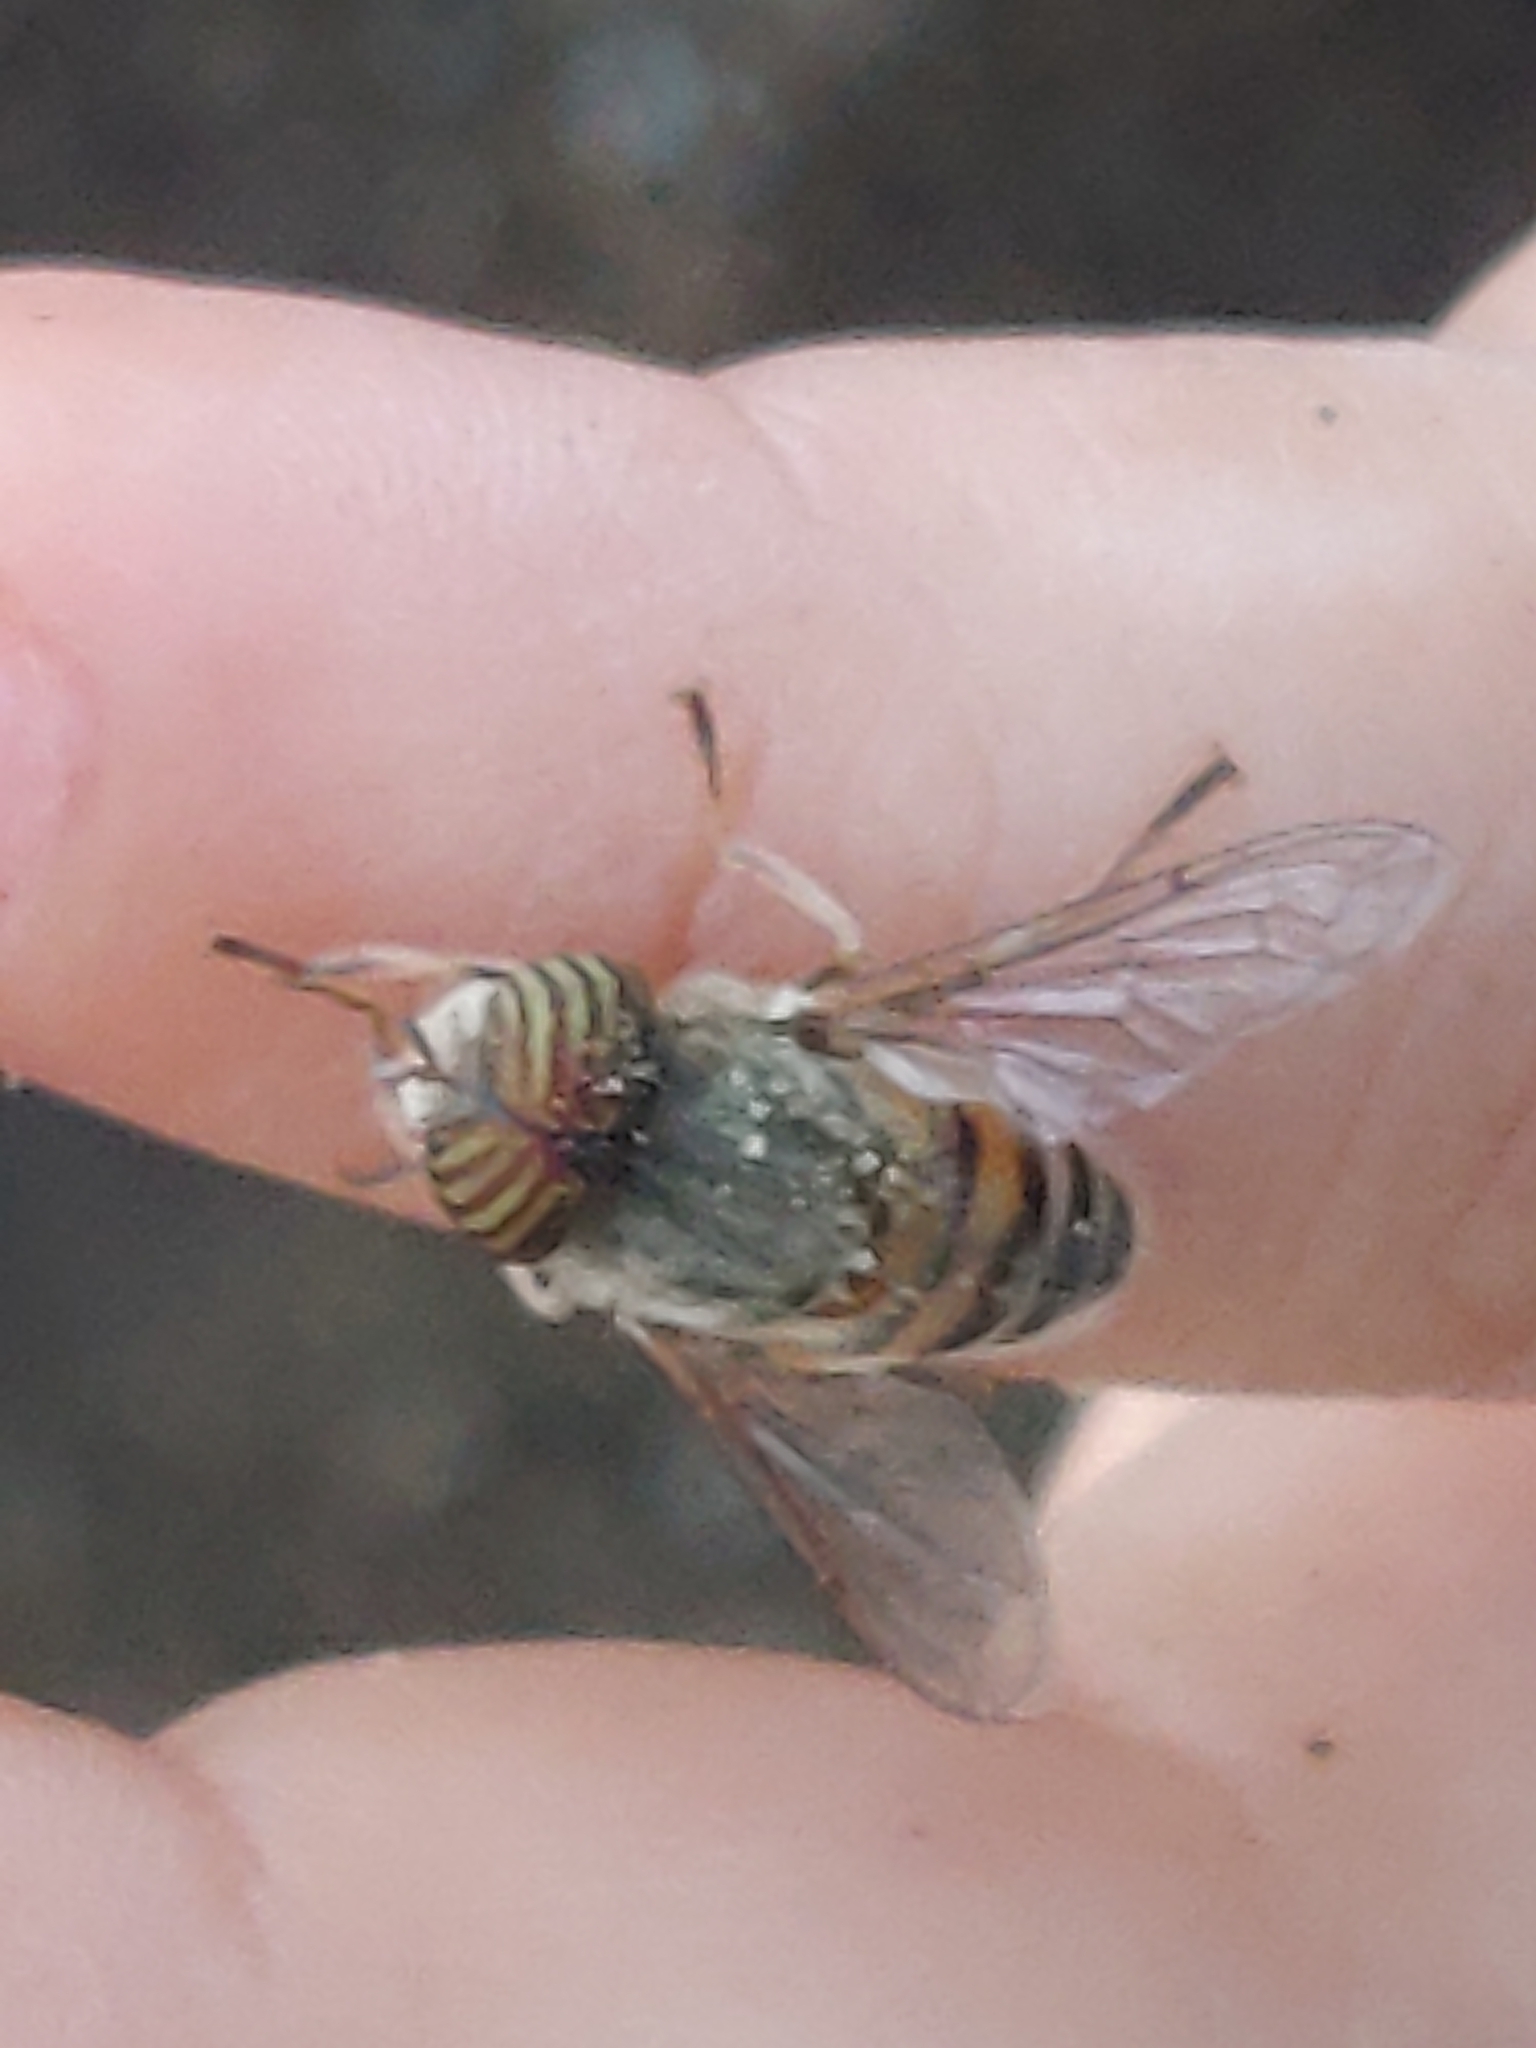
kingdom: Animalia
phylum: Arthropoda
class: Insecta
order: Diptera
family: Syrphidae
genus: Eristalinus
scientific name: Eristalinus taeniops
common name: Syrphid fly
